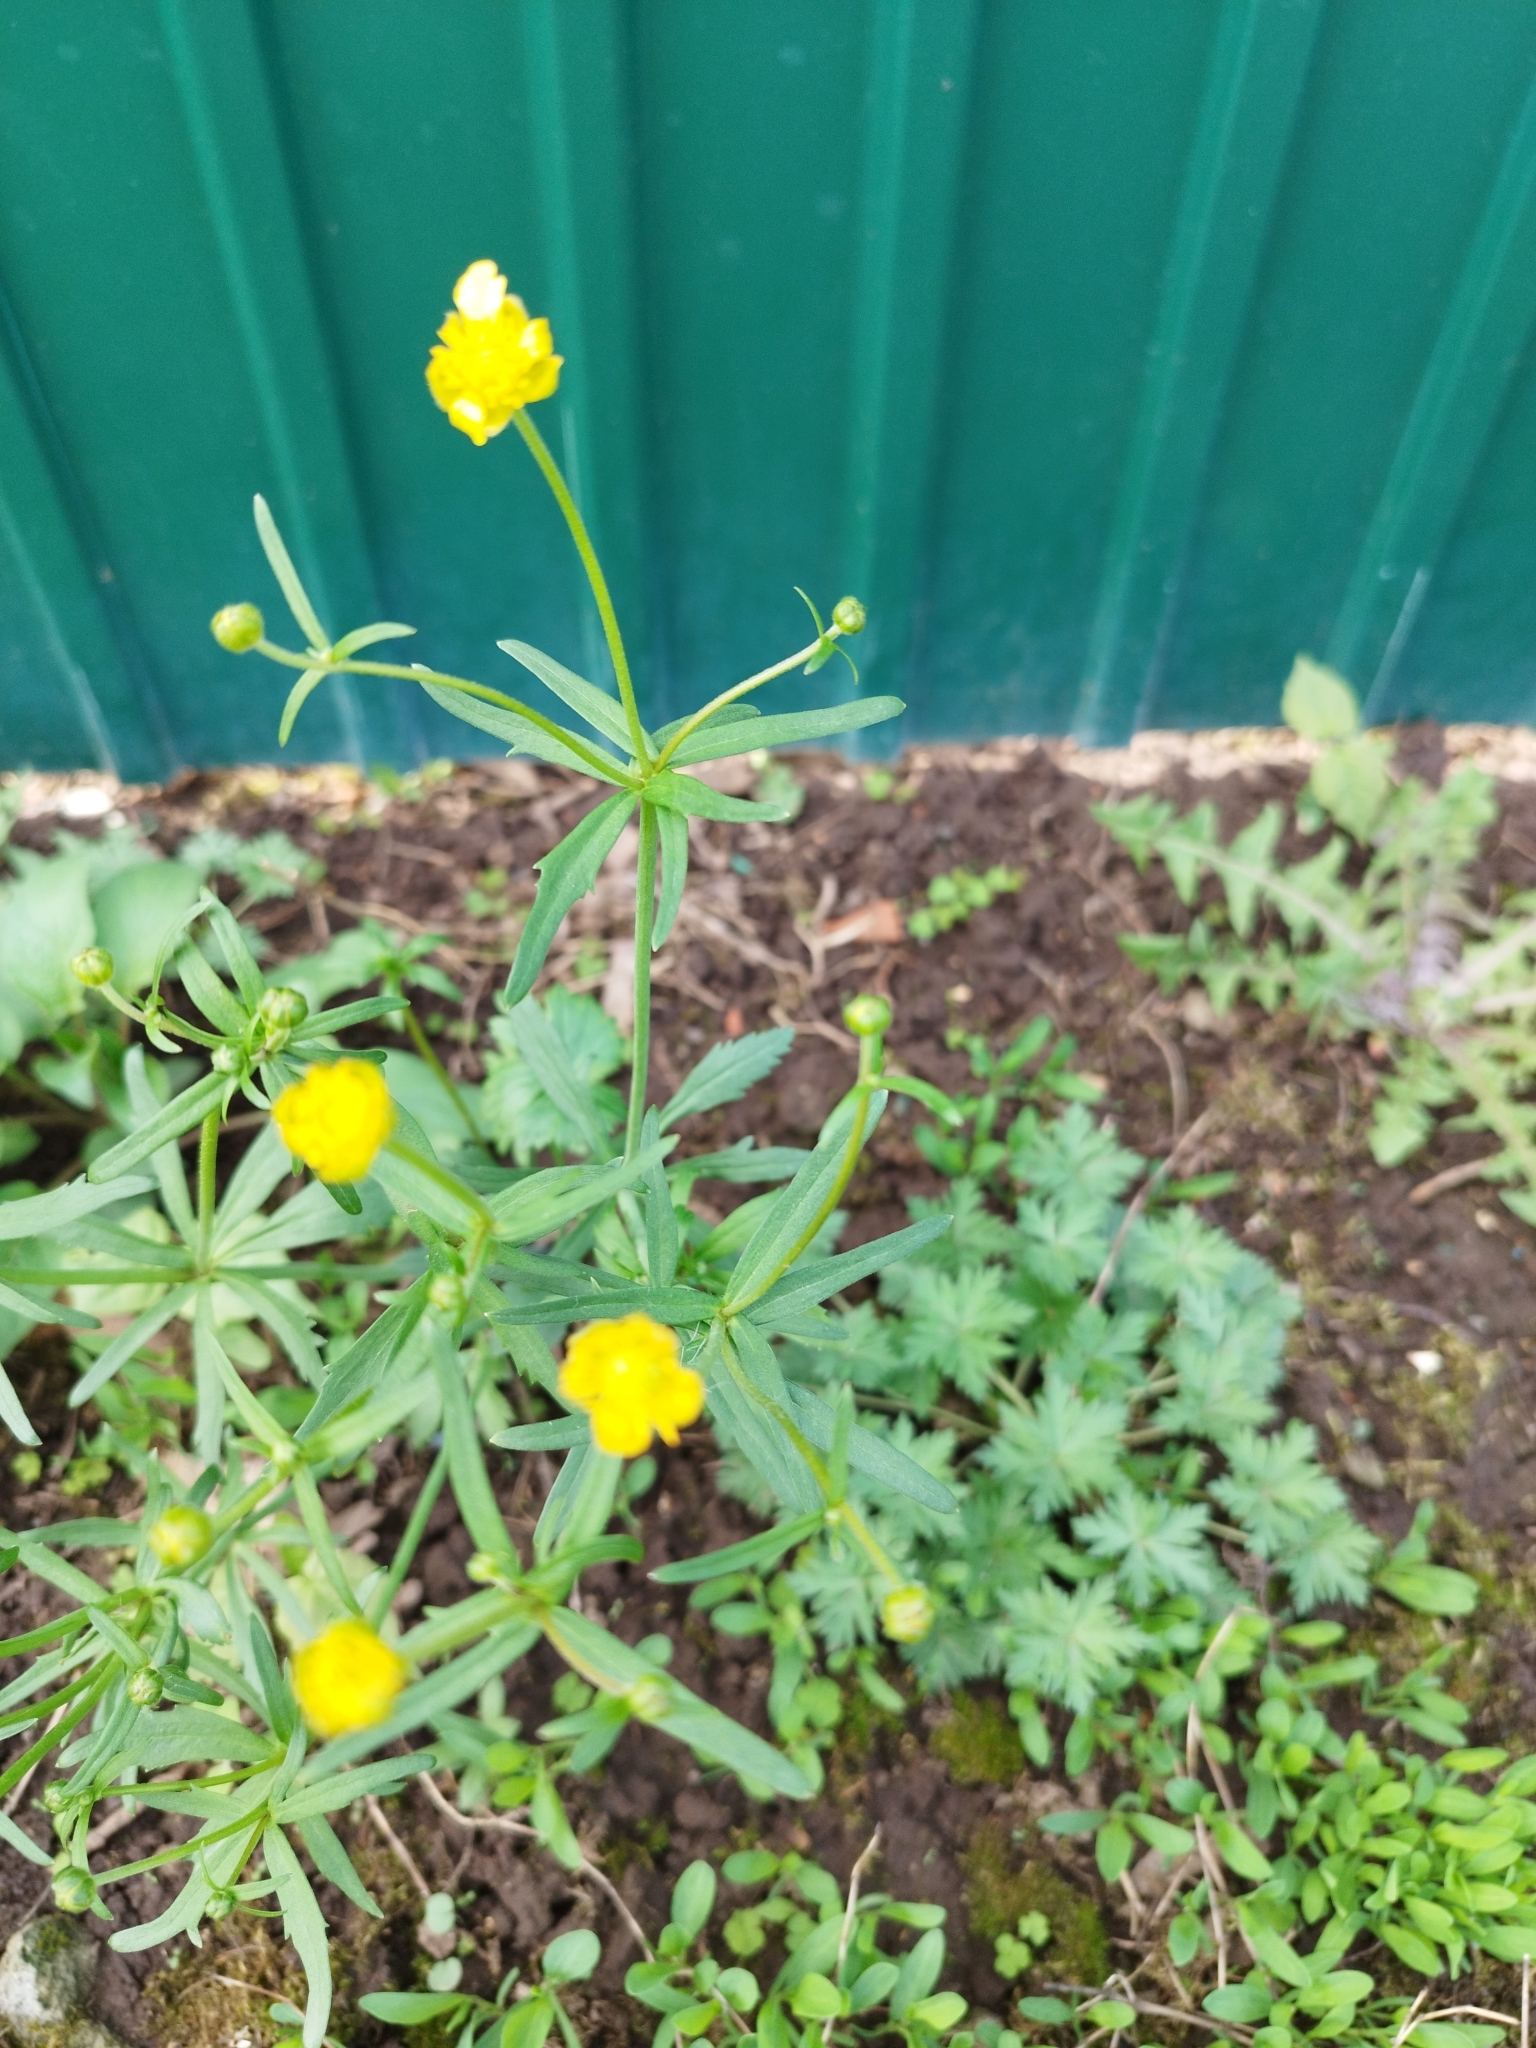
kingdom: Plantae
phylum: Tracheophyta
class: Magnoliopsida
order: Ranunculales
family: Ranunculaceae
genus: Ranunculus
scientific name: Ranunculus cassubicus
